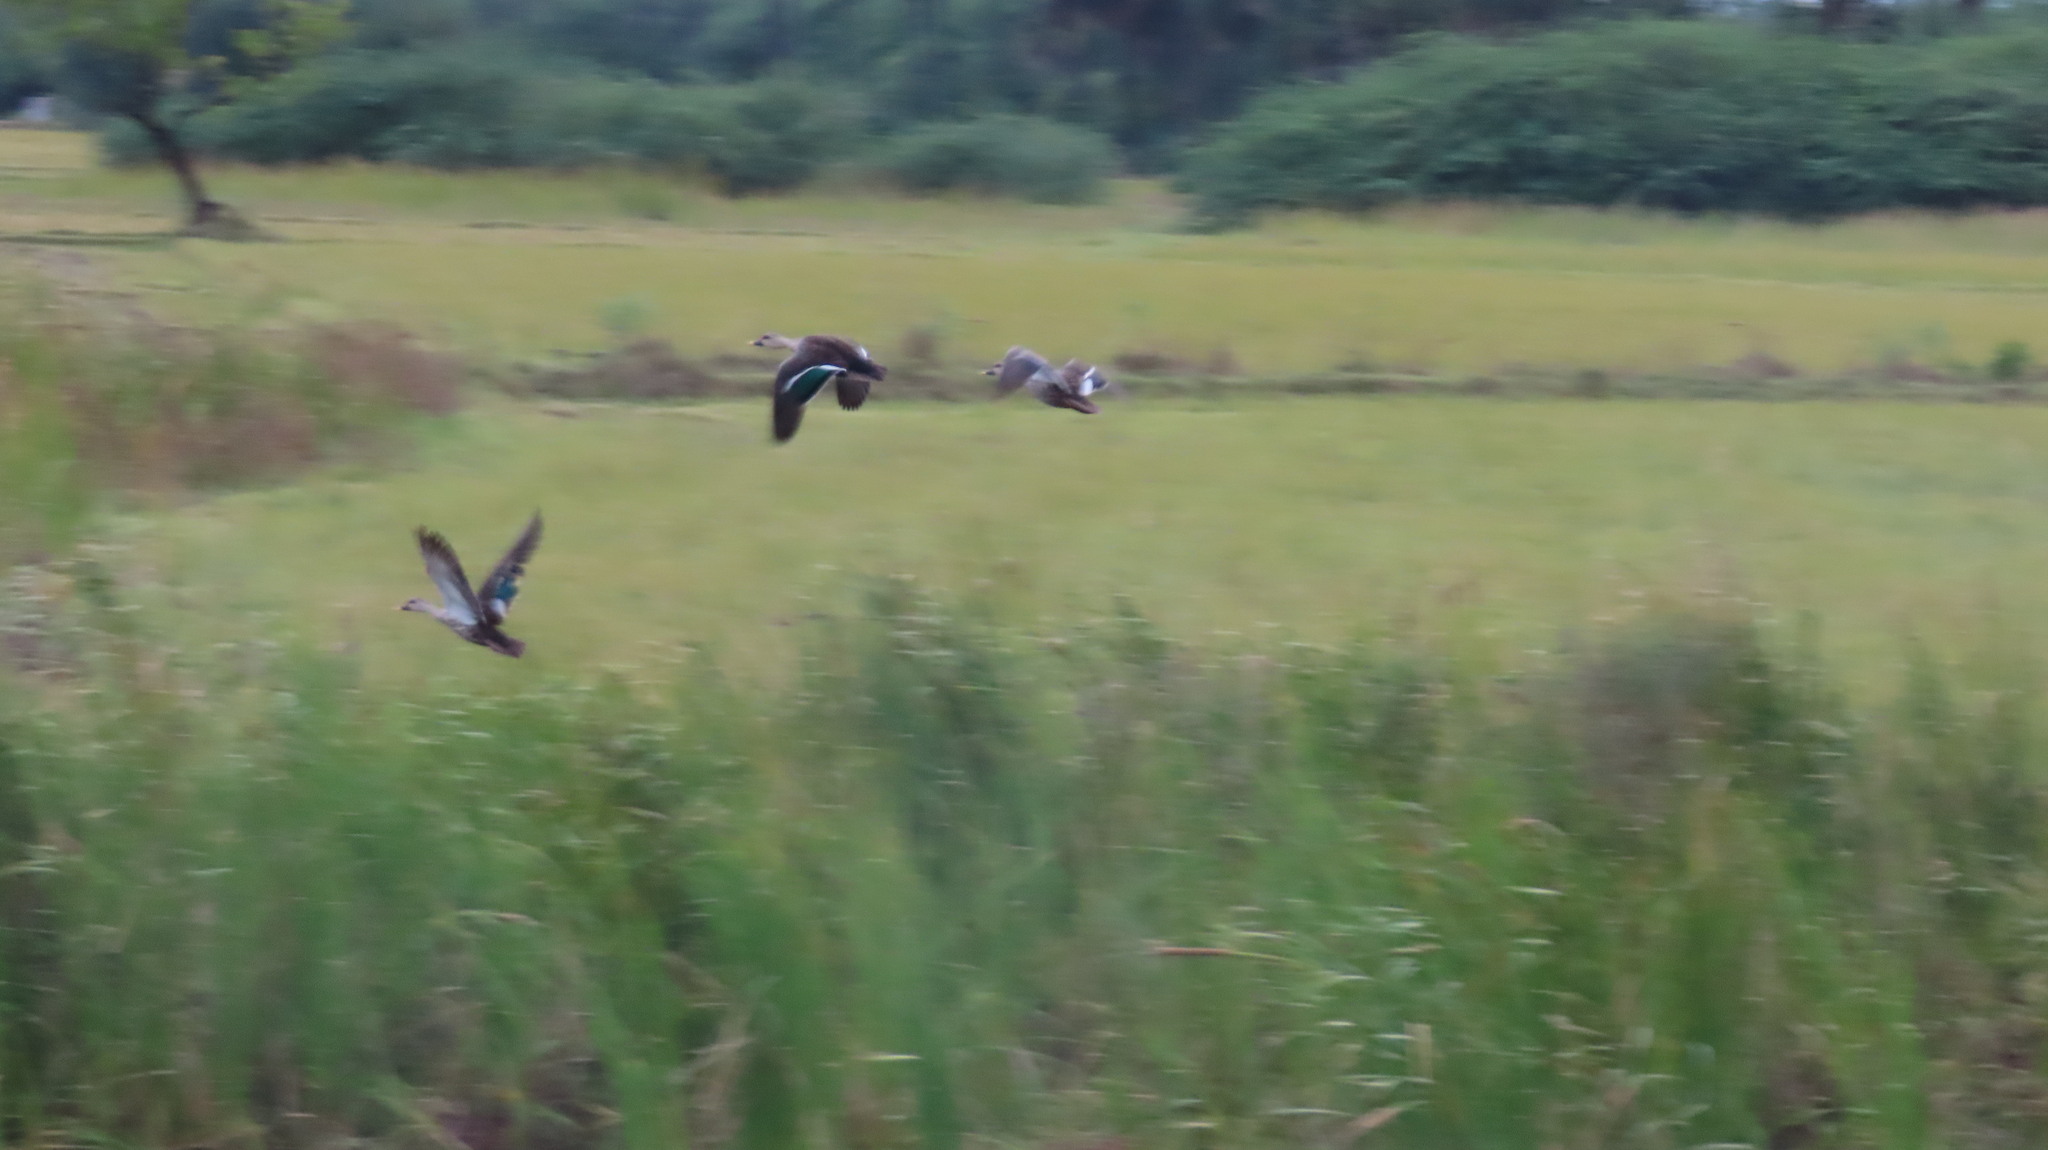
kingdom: Animalia
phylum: Chordata
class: Aves
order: Anseriformes
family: Anatidae
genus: Anas
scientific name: Anas poecilorhyncha
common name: Indian spot-billed duck
